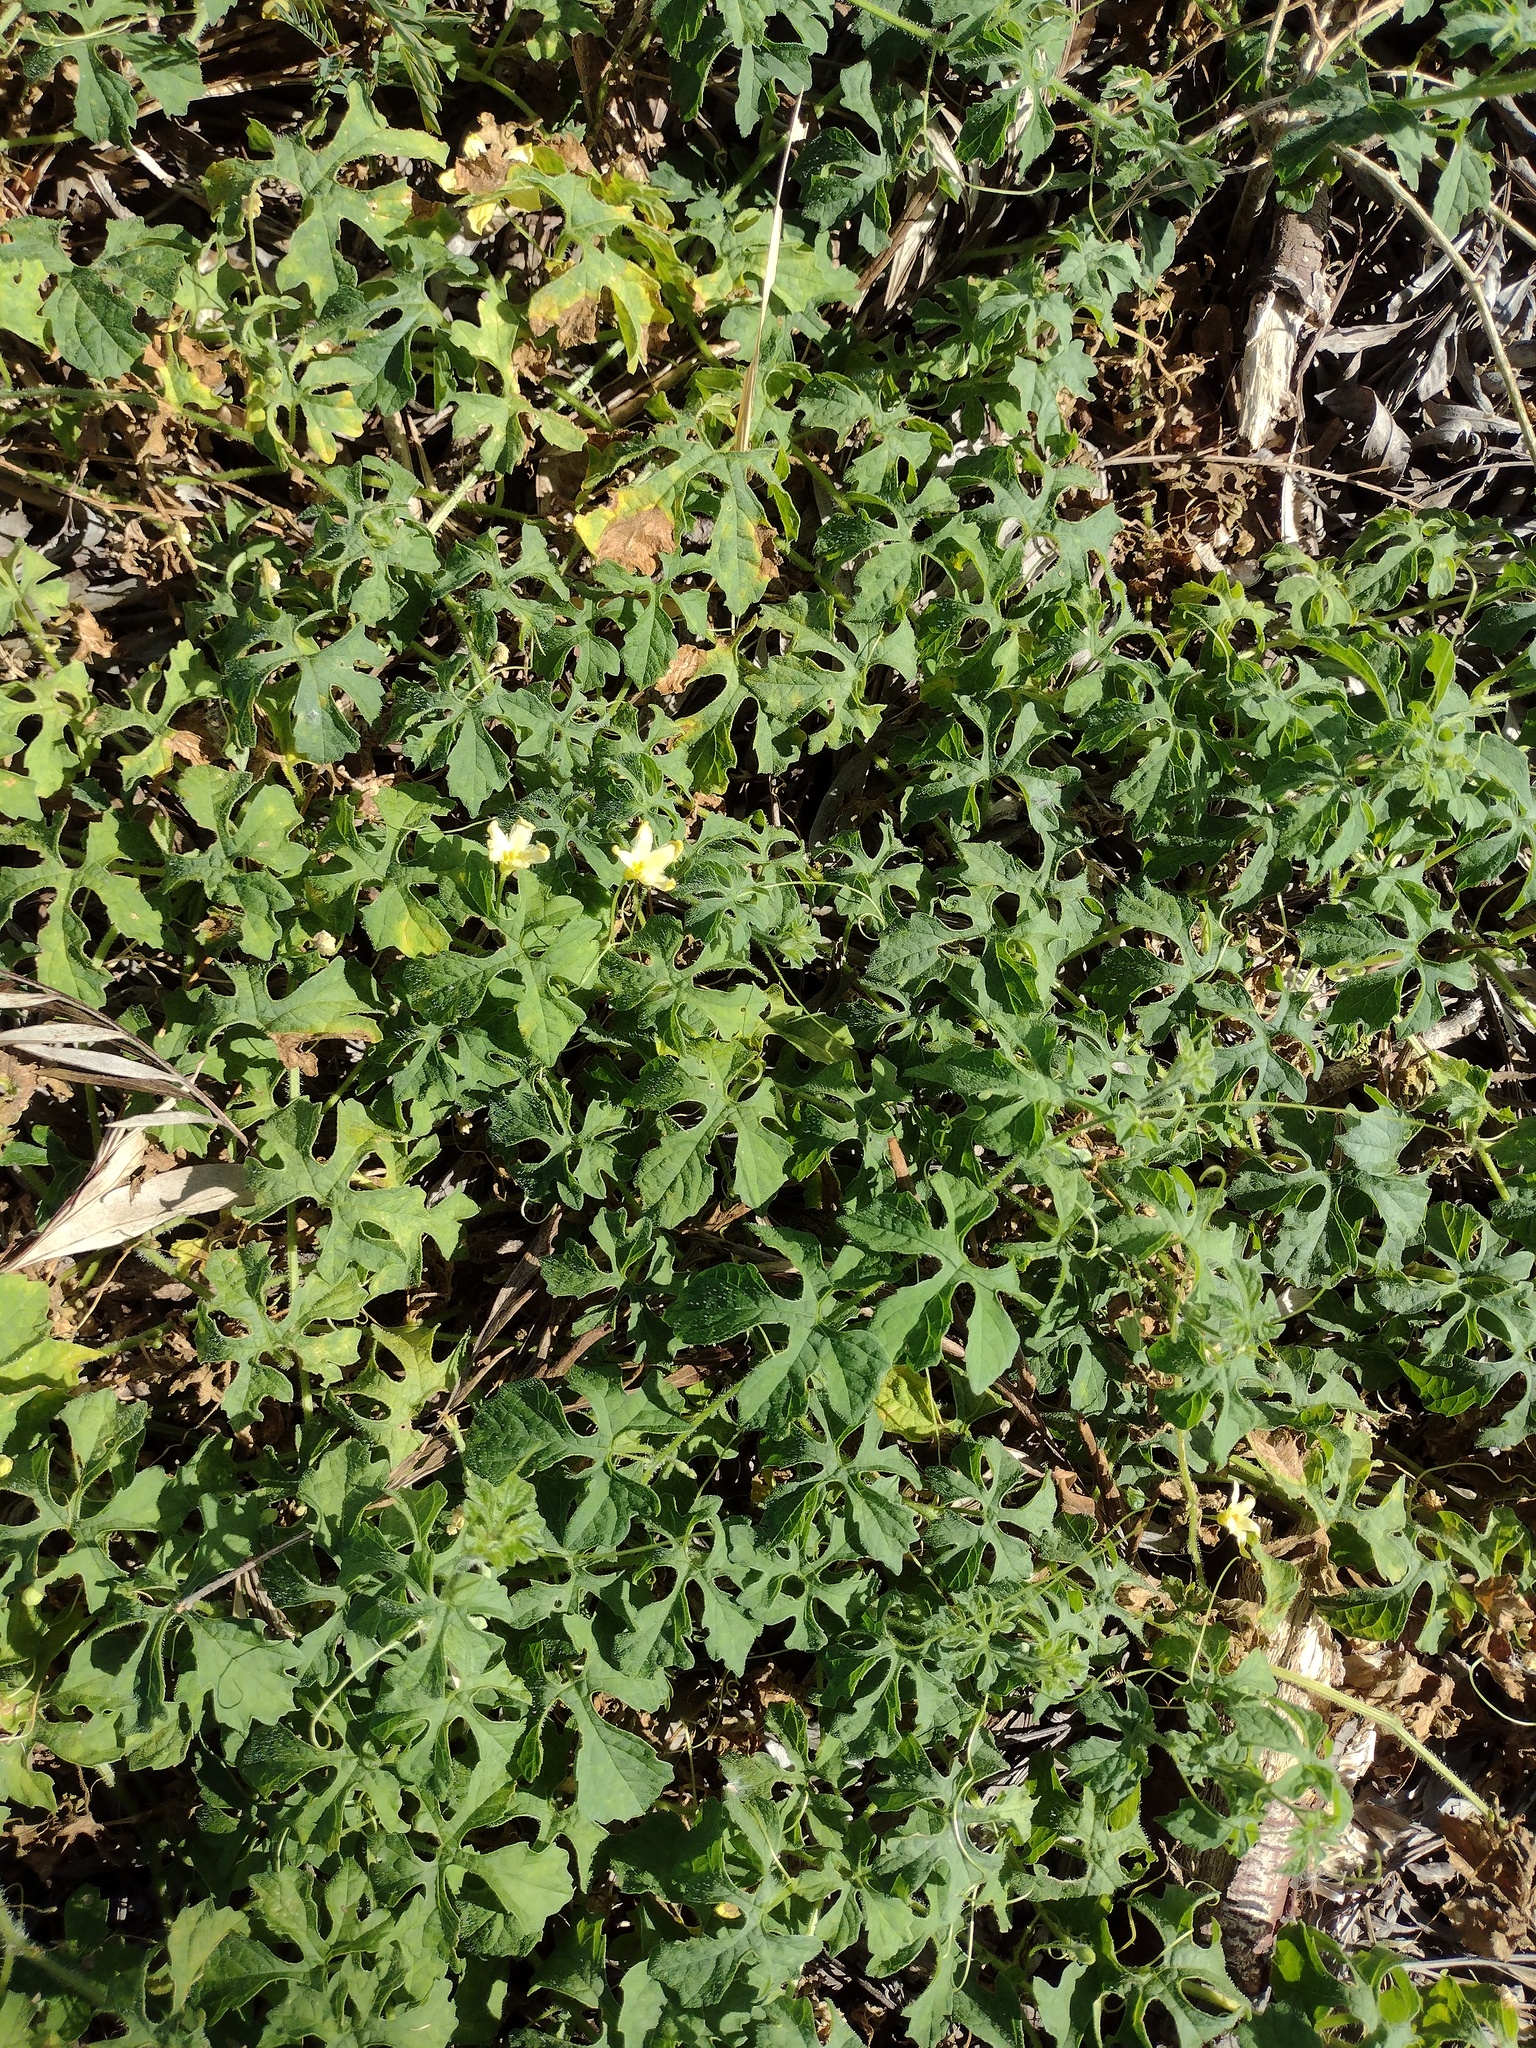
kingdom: Plantae
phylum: Tracheophyta
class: Magnoliopsida
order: Cucurbitales
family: Cucurbitaceae
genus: Momordica
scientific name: Momordica charantia
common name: Balsampear
